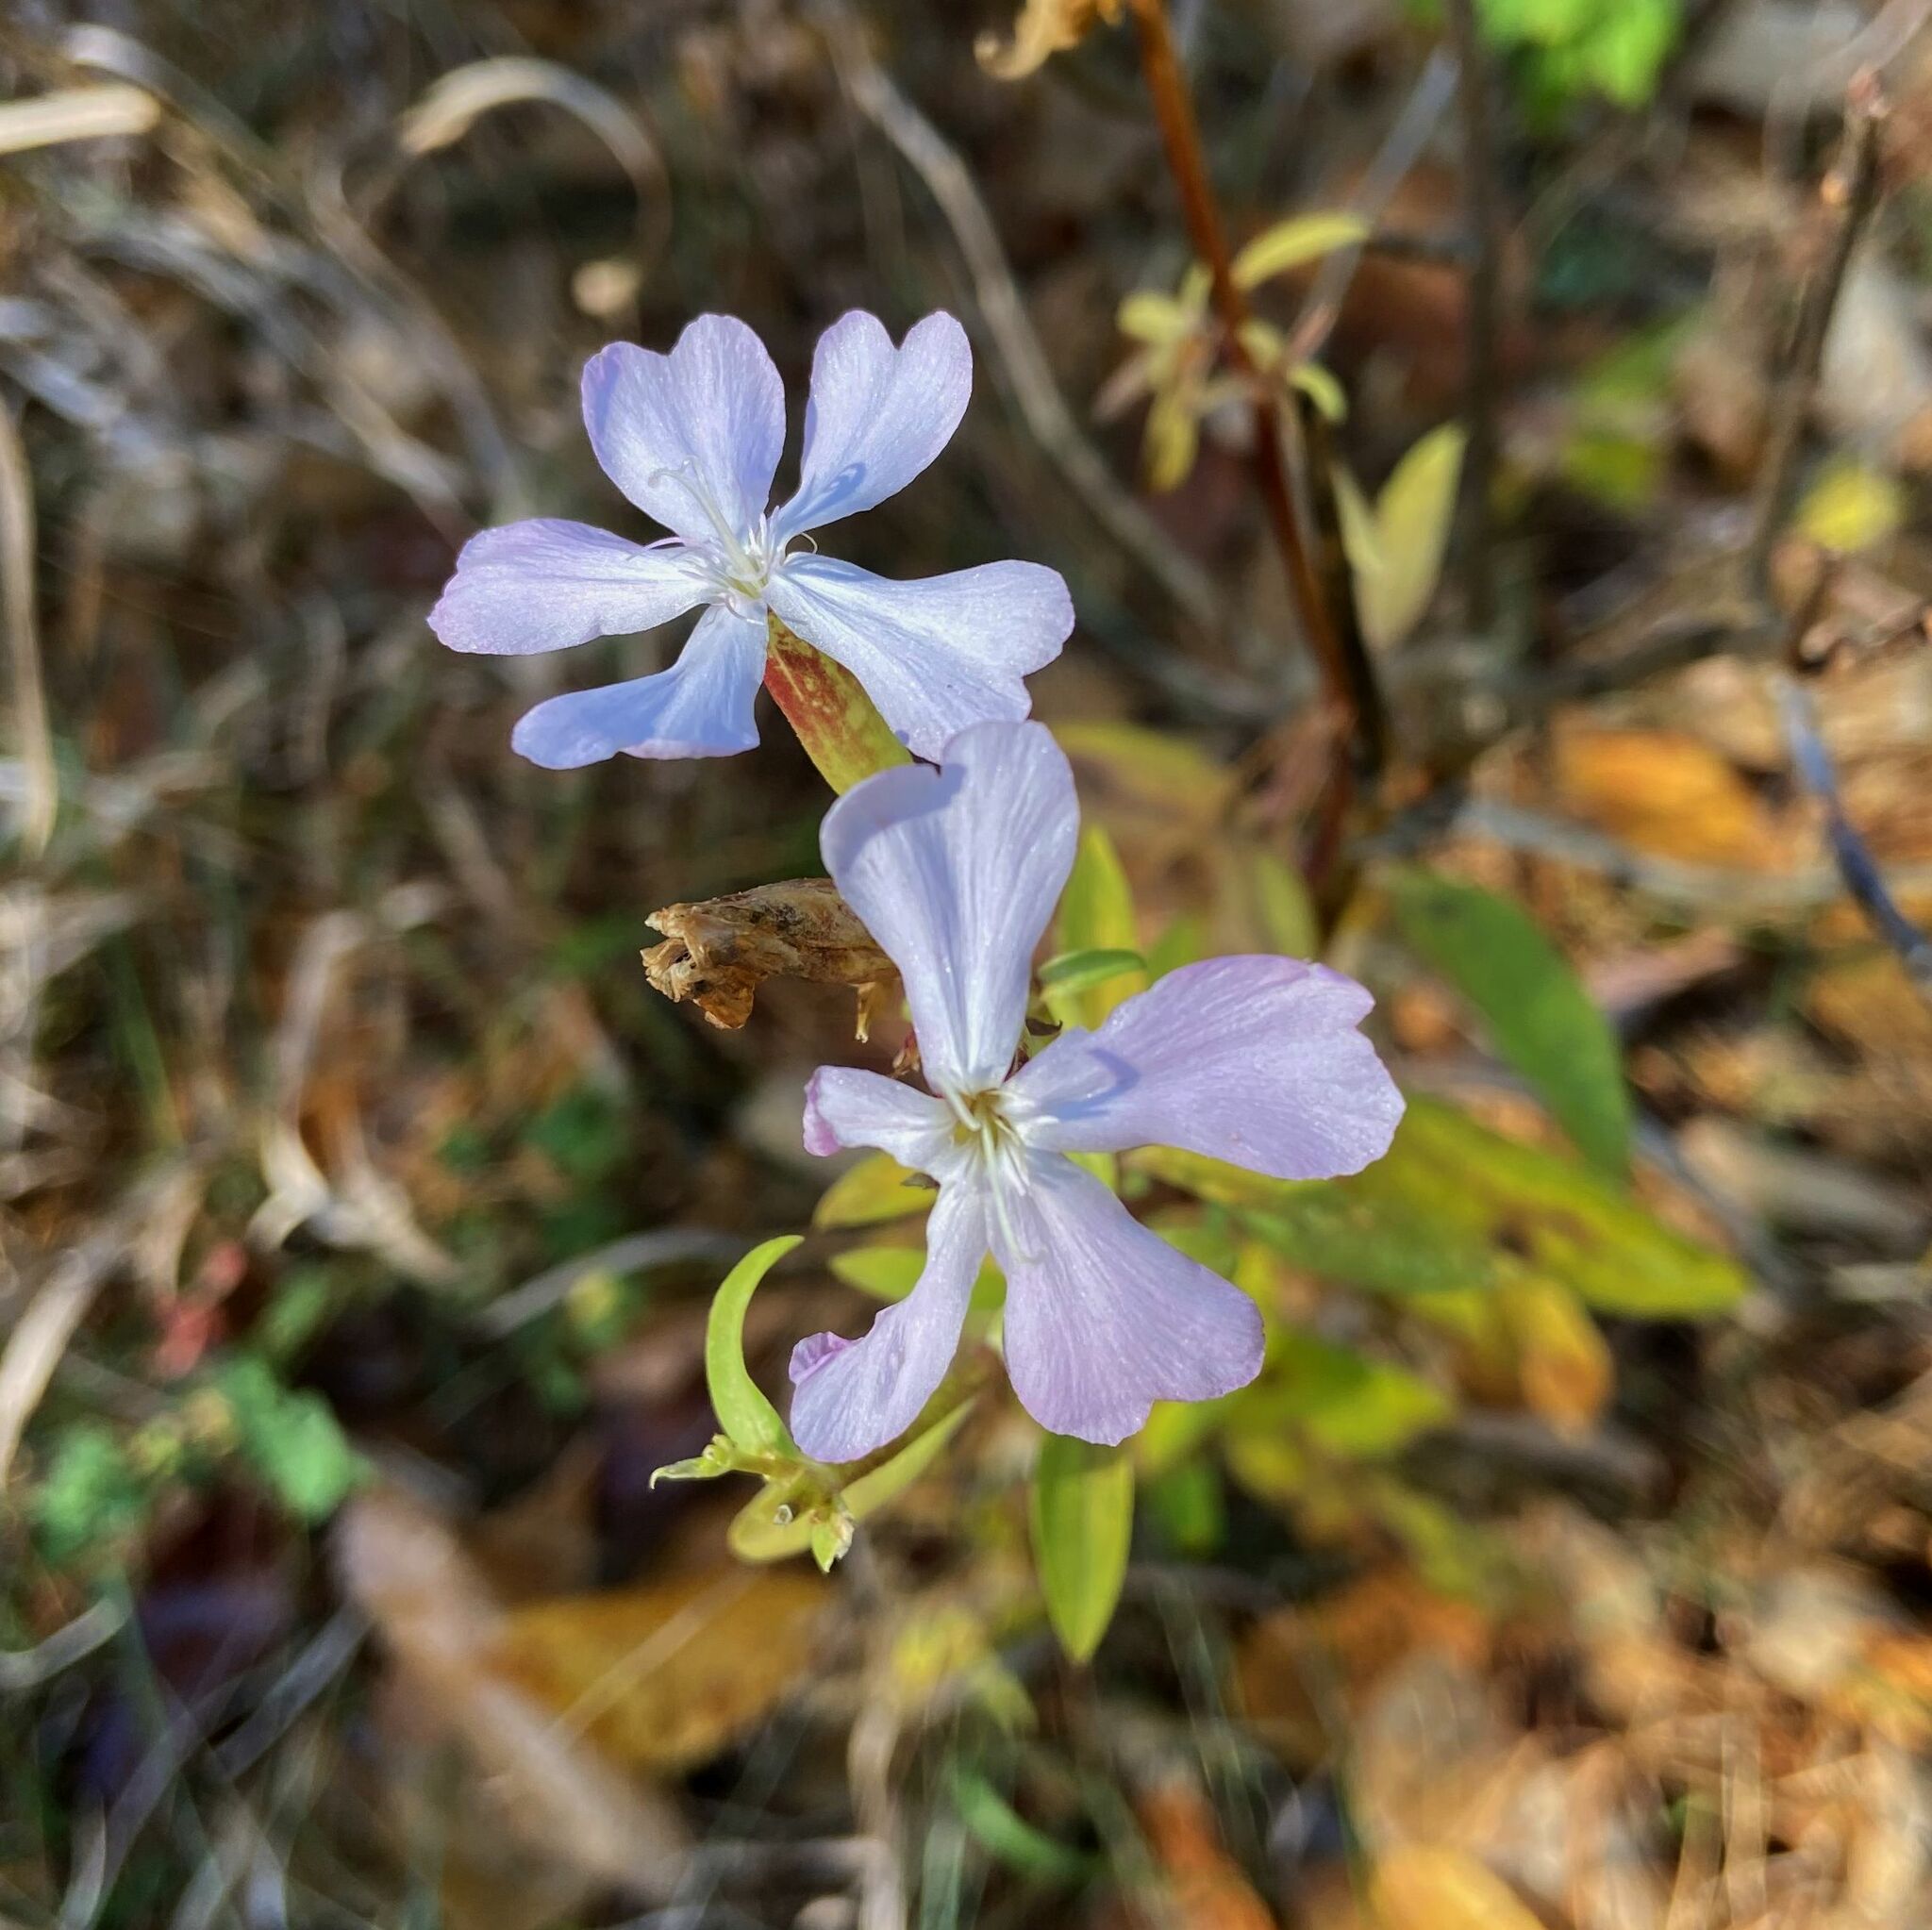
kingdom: Plantae
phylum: Tracheophyta
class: Magnoliopsida
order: Caryophyllales
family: Caryophyllaceae
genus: Saponaria
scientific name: Saponaria officinalis
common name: Soapwort
